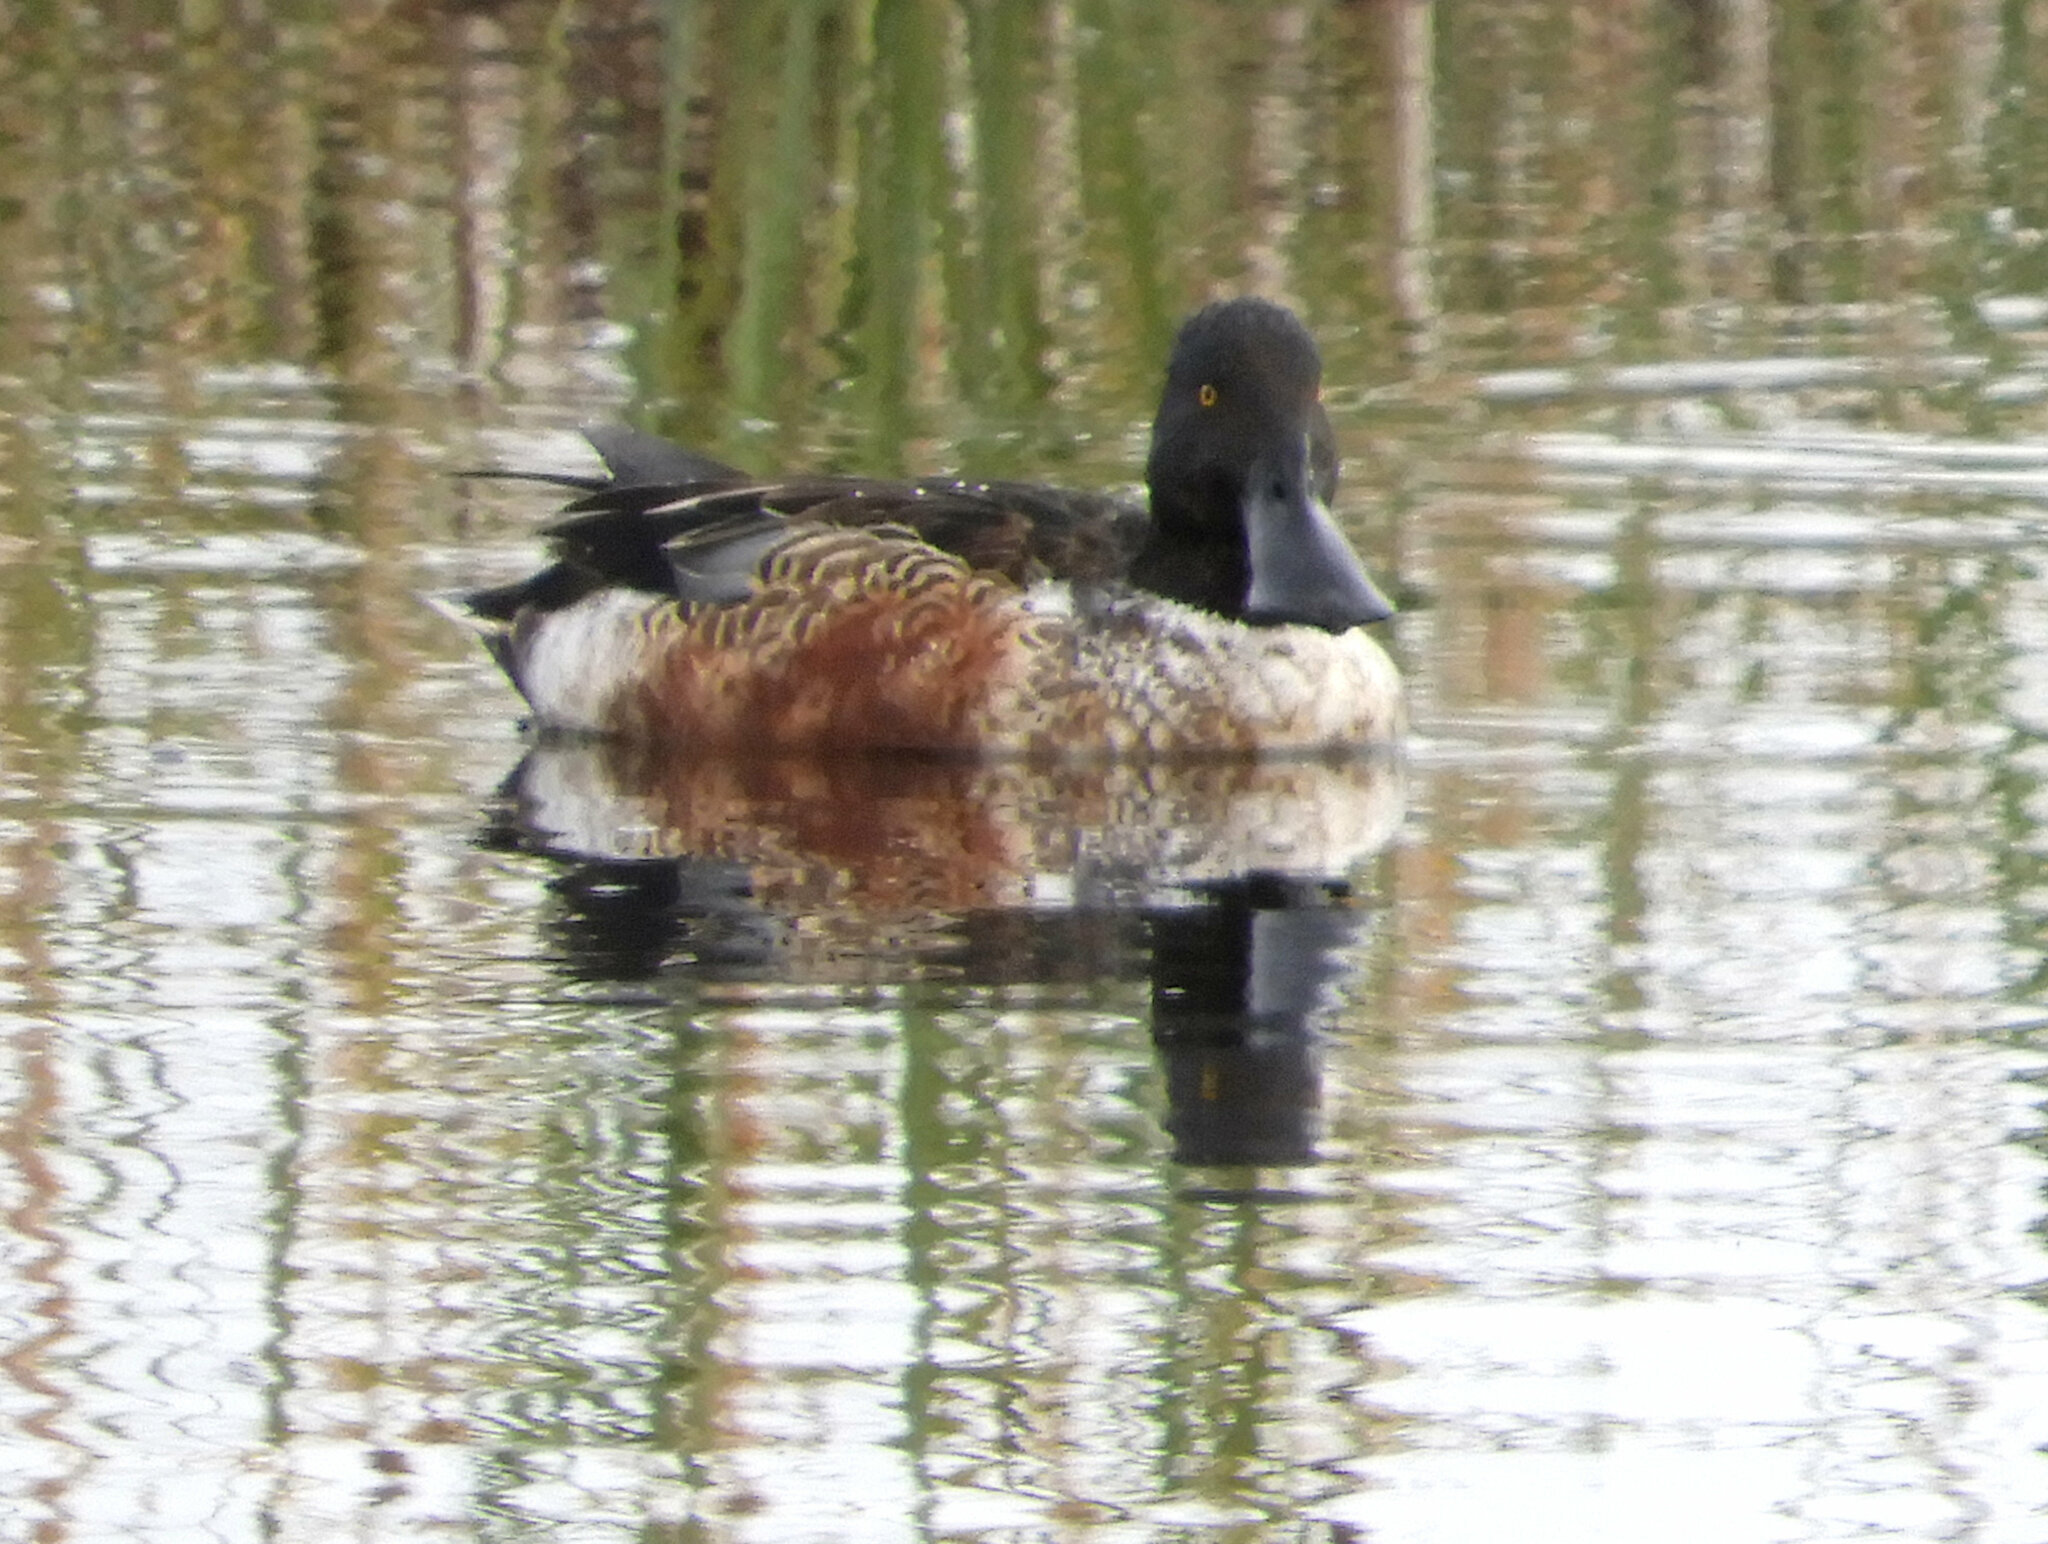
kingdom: Animalia
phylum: Chordata
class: Aves
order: Anseriformes
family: Anatidae
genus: Spatula
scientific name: Spatula clypeata
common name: Northern shoveler
